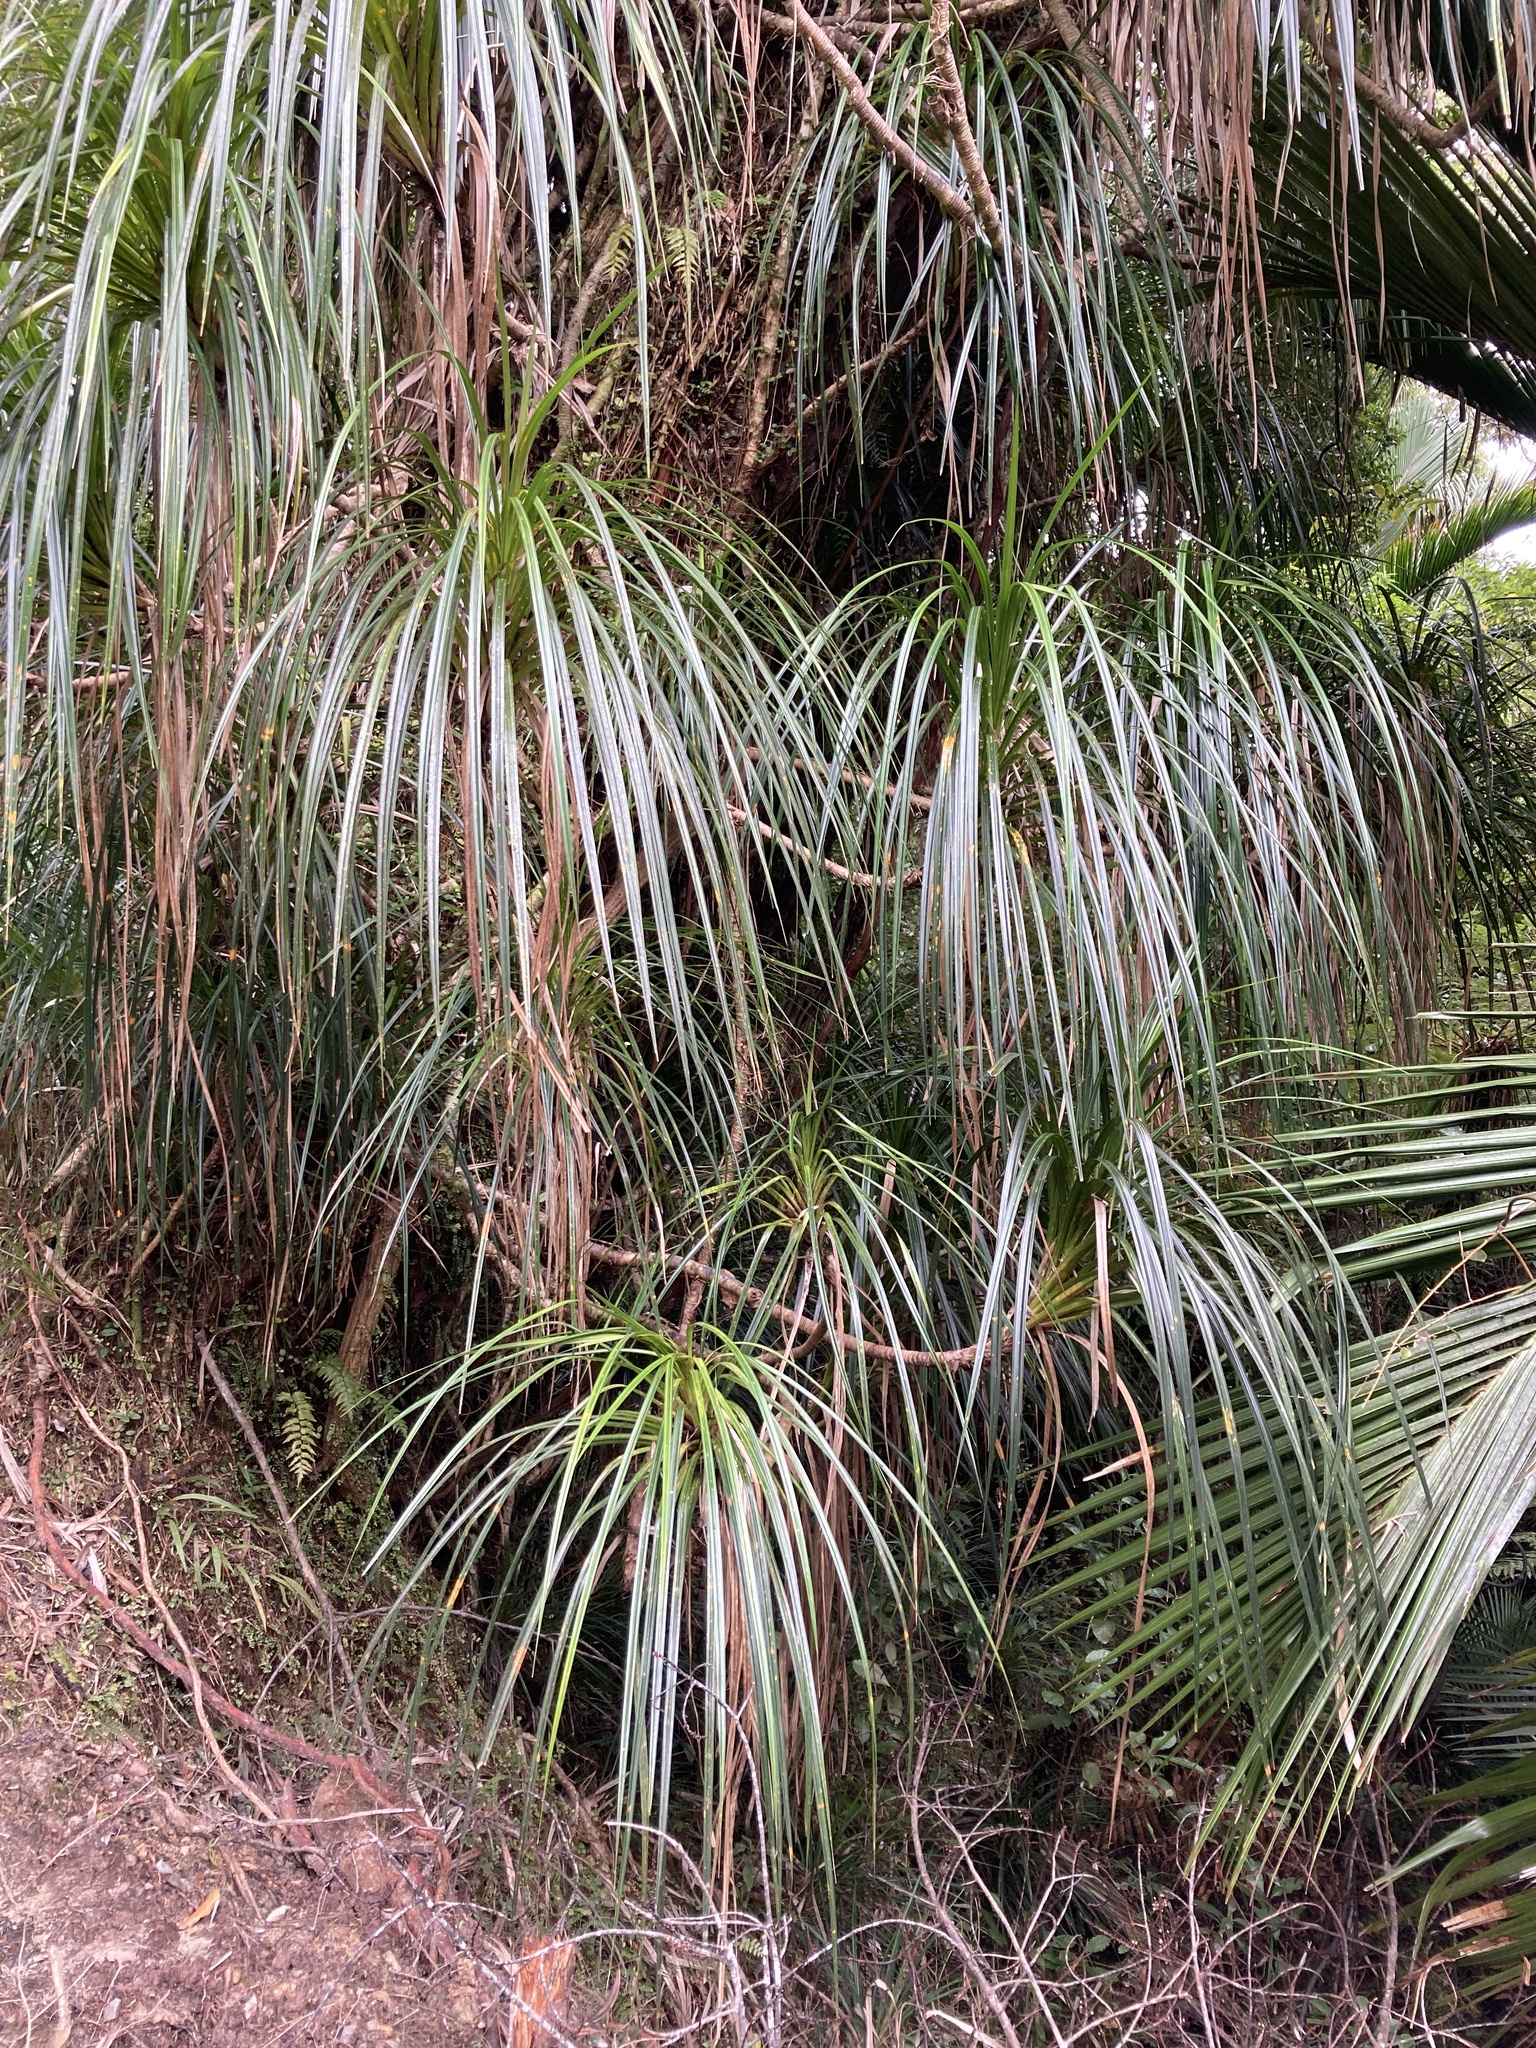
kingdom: Plantae
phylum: Tracheophyta
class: Liliopsida
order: Pandanales
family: Pandanaceae
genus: Freycinetia
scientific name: Freycinetia banksii
